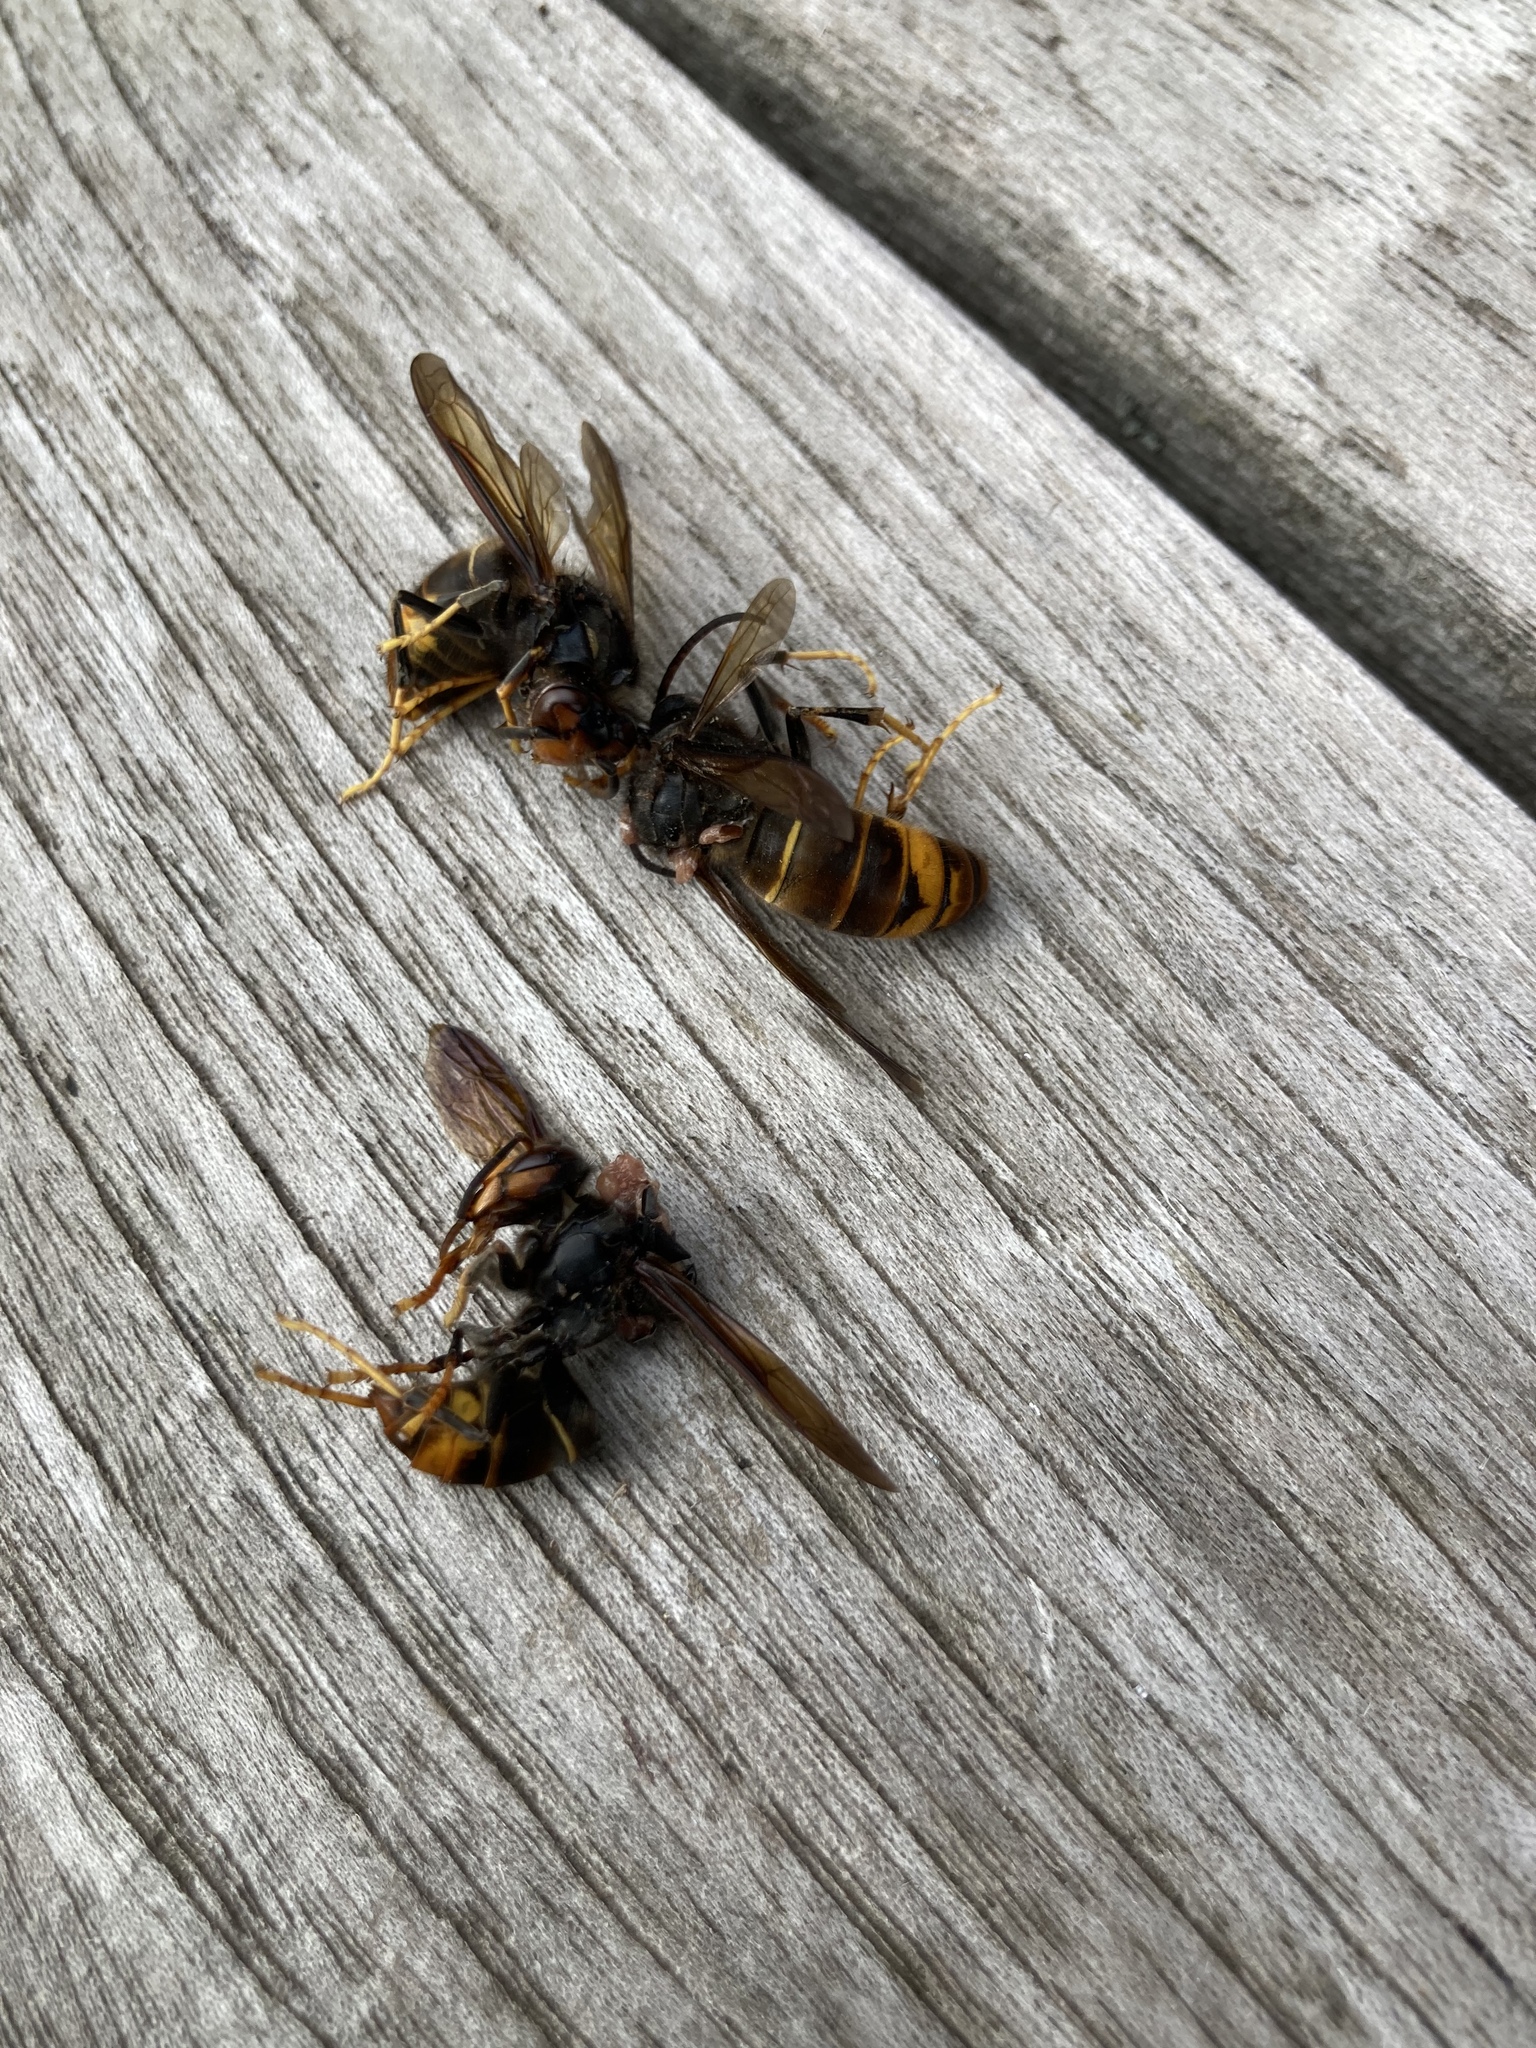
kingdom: Animalia
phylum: Arthropoda
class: Insecta
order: Hymenoptera
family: Vespidae
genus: Vespa
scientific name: Vespa velutina
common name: Asian hornet
